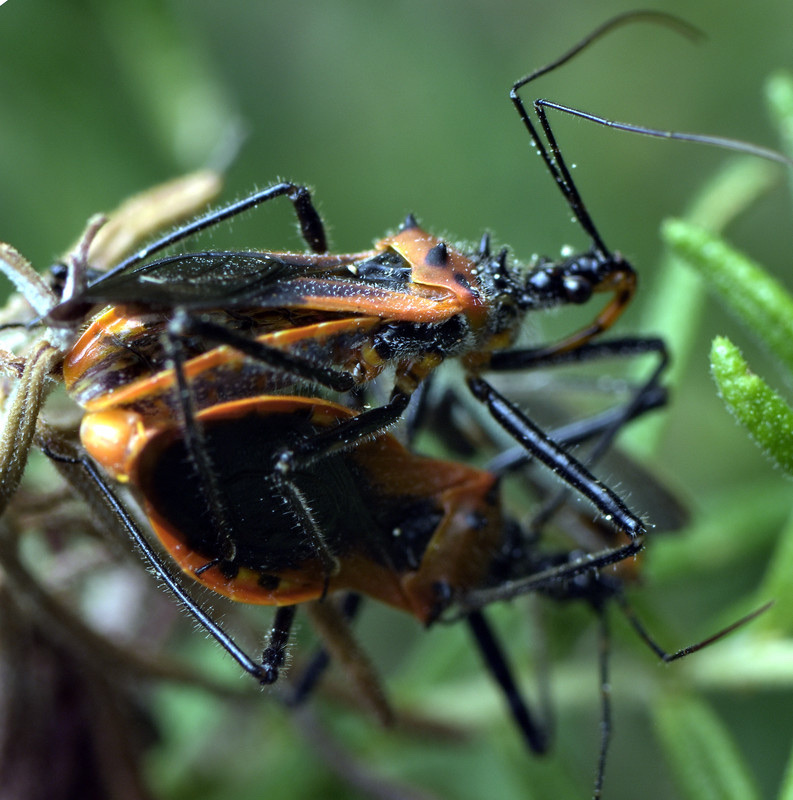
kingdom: Animalia
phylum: Arthropoda
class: Insecta
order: Hemiptera
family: Reduviidae
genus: Gminatus
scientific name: Gminatus australis
